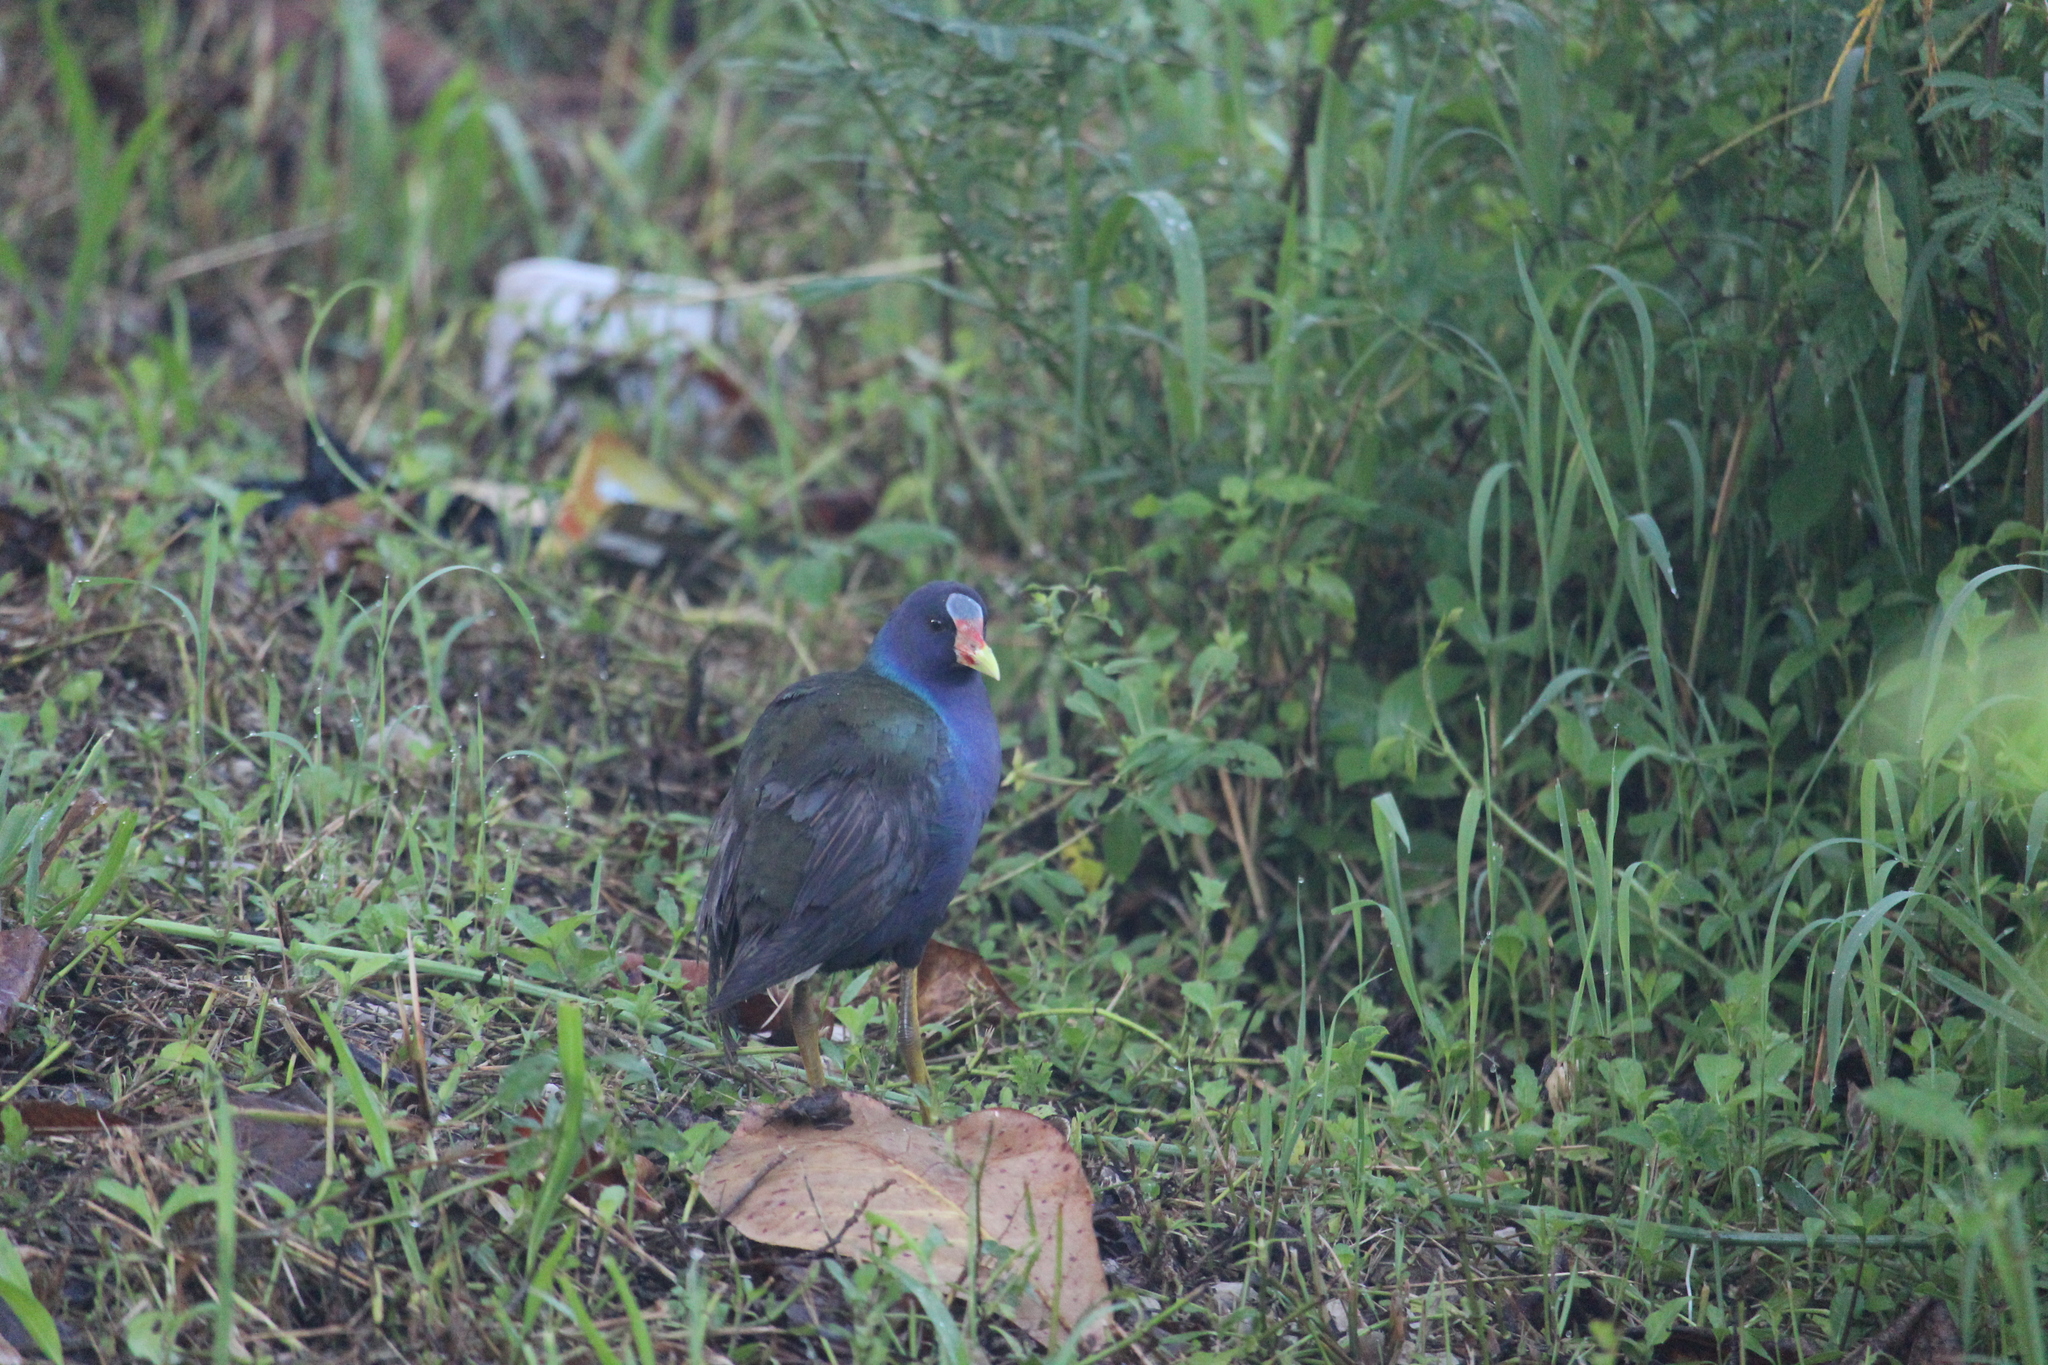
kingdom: Animalia
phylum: Chordata
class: Aves
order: Gruiformes
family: Rallidae
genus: Porphyrio
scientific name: Porphyrio martinica
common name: Purple gallinule
